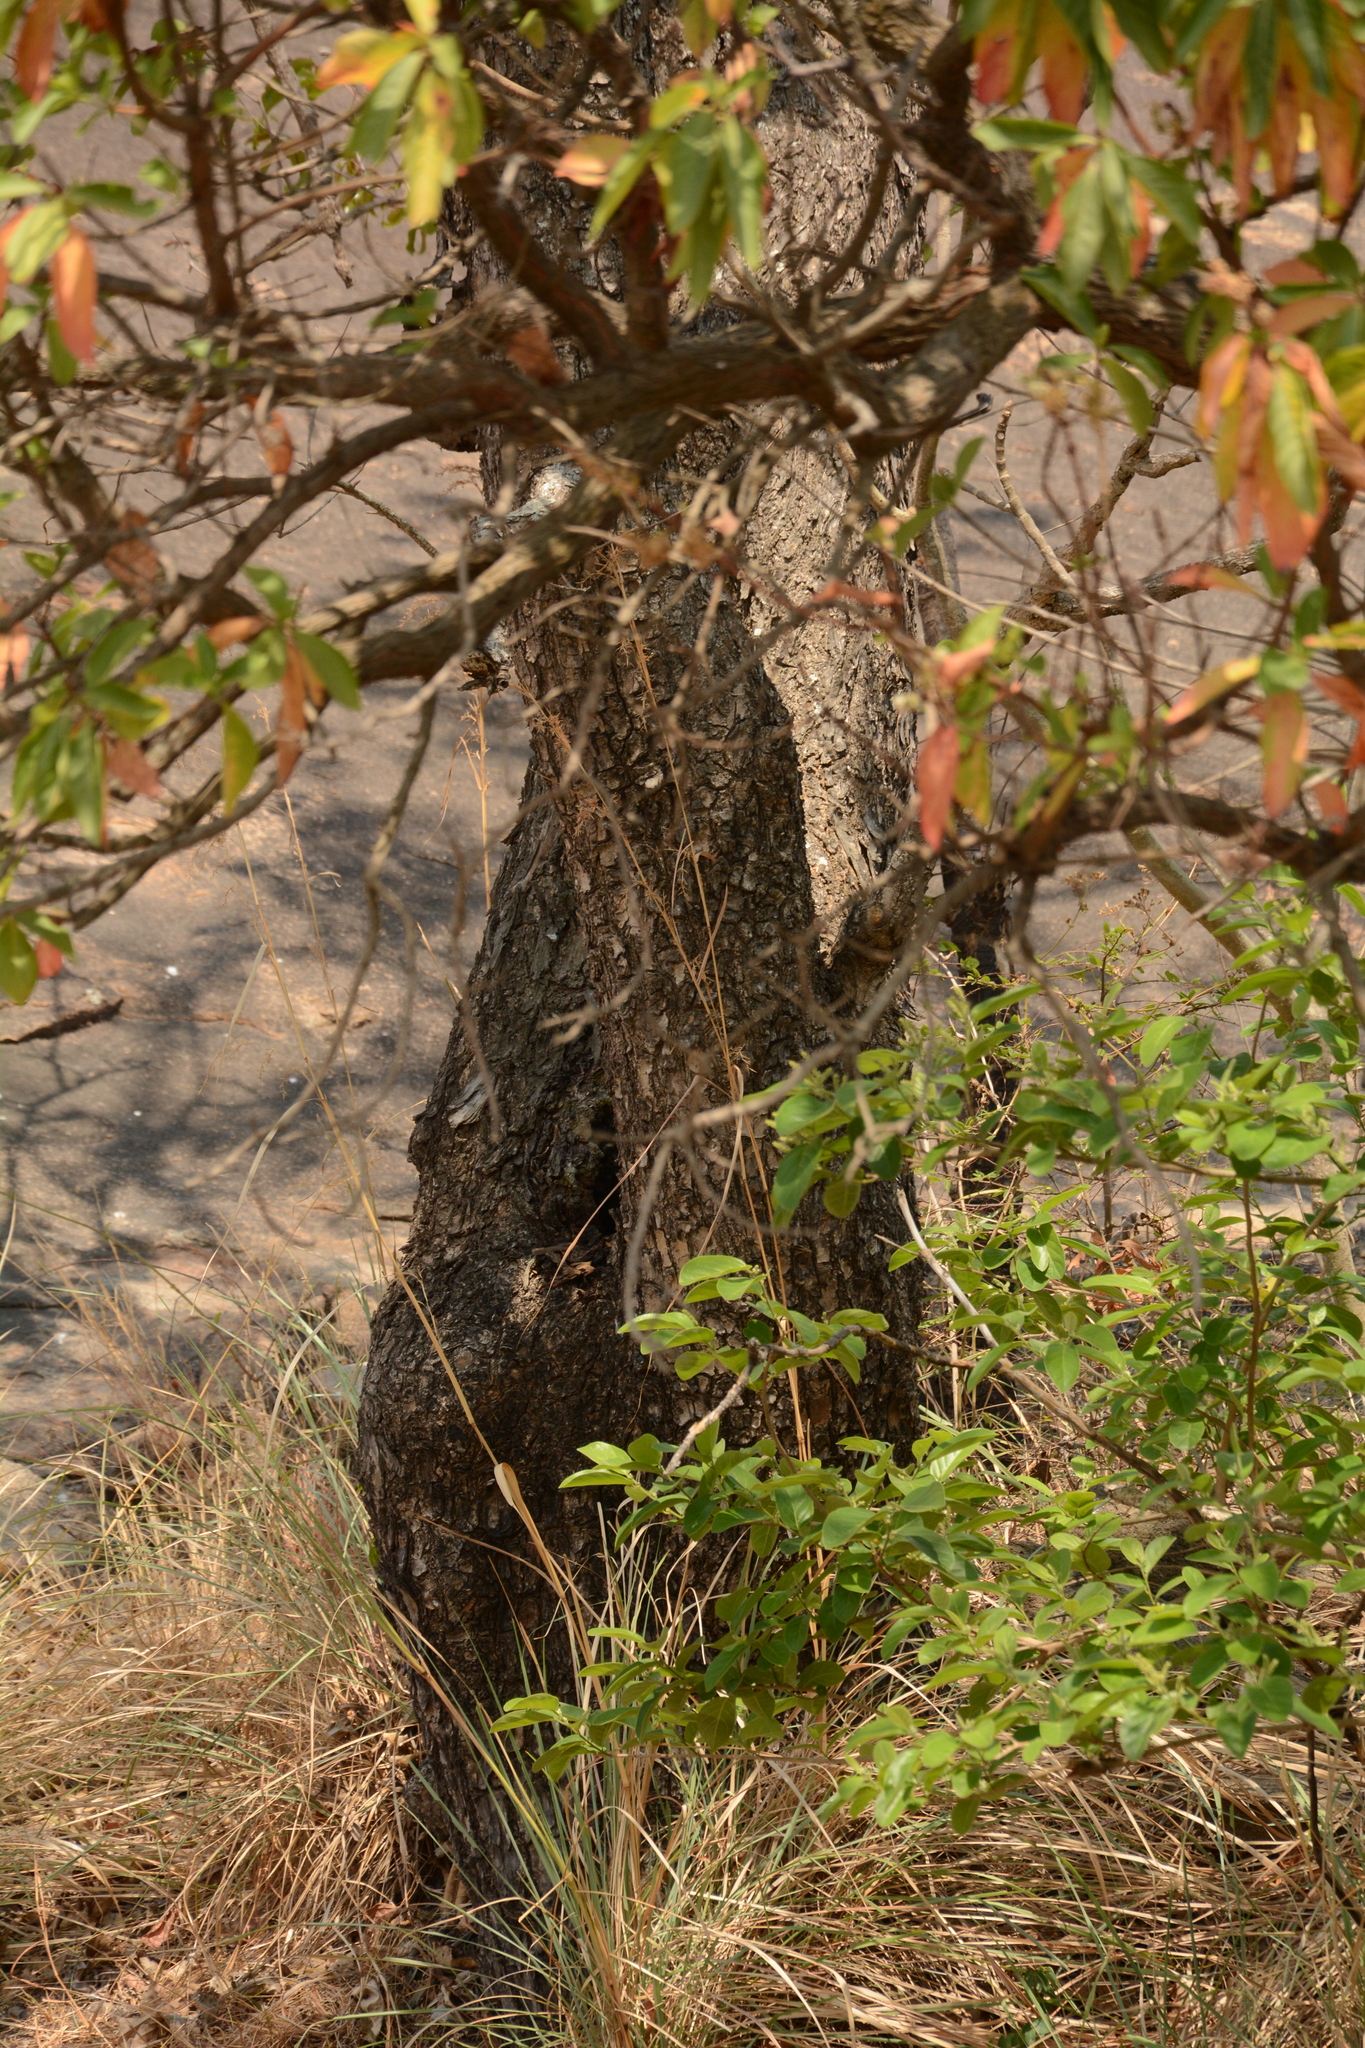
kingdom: Plantae
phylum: Tracheophyta
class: Magnoliopsida
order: Myrtales
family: Combretaceae
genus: Terminalia
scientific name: Terminalia elliptica
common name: Indian-laurel
